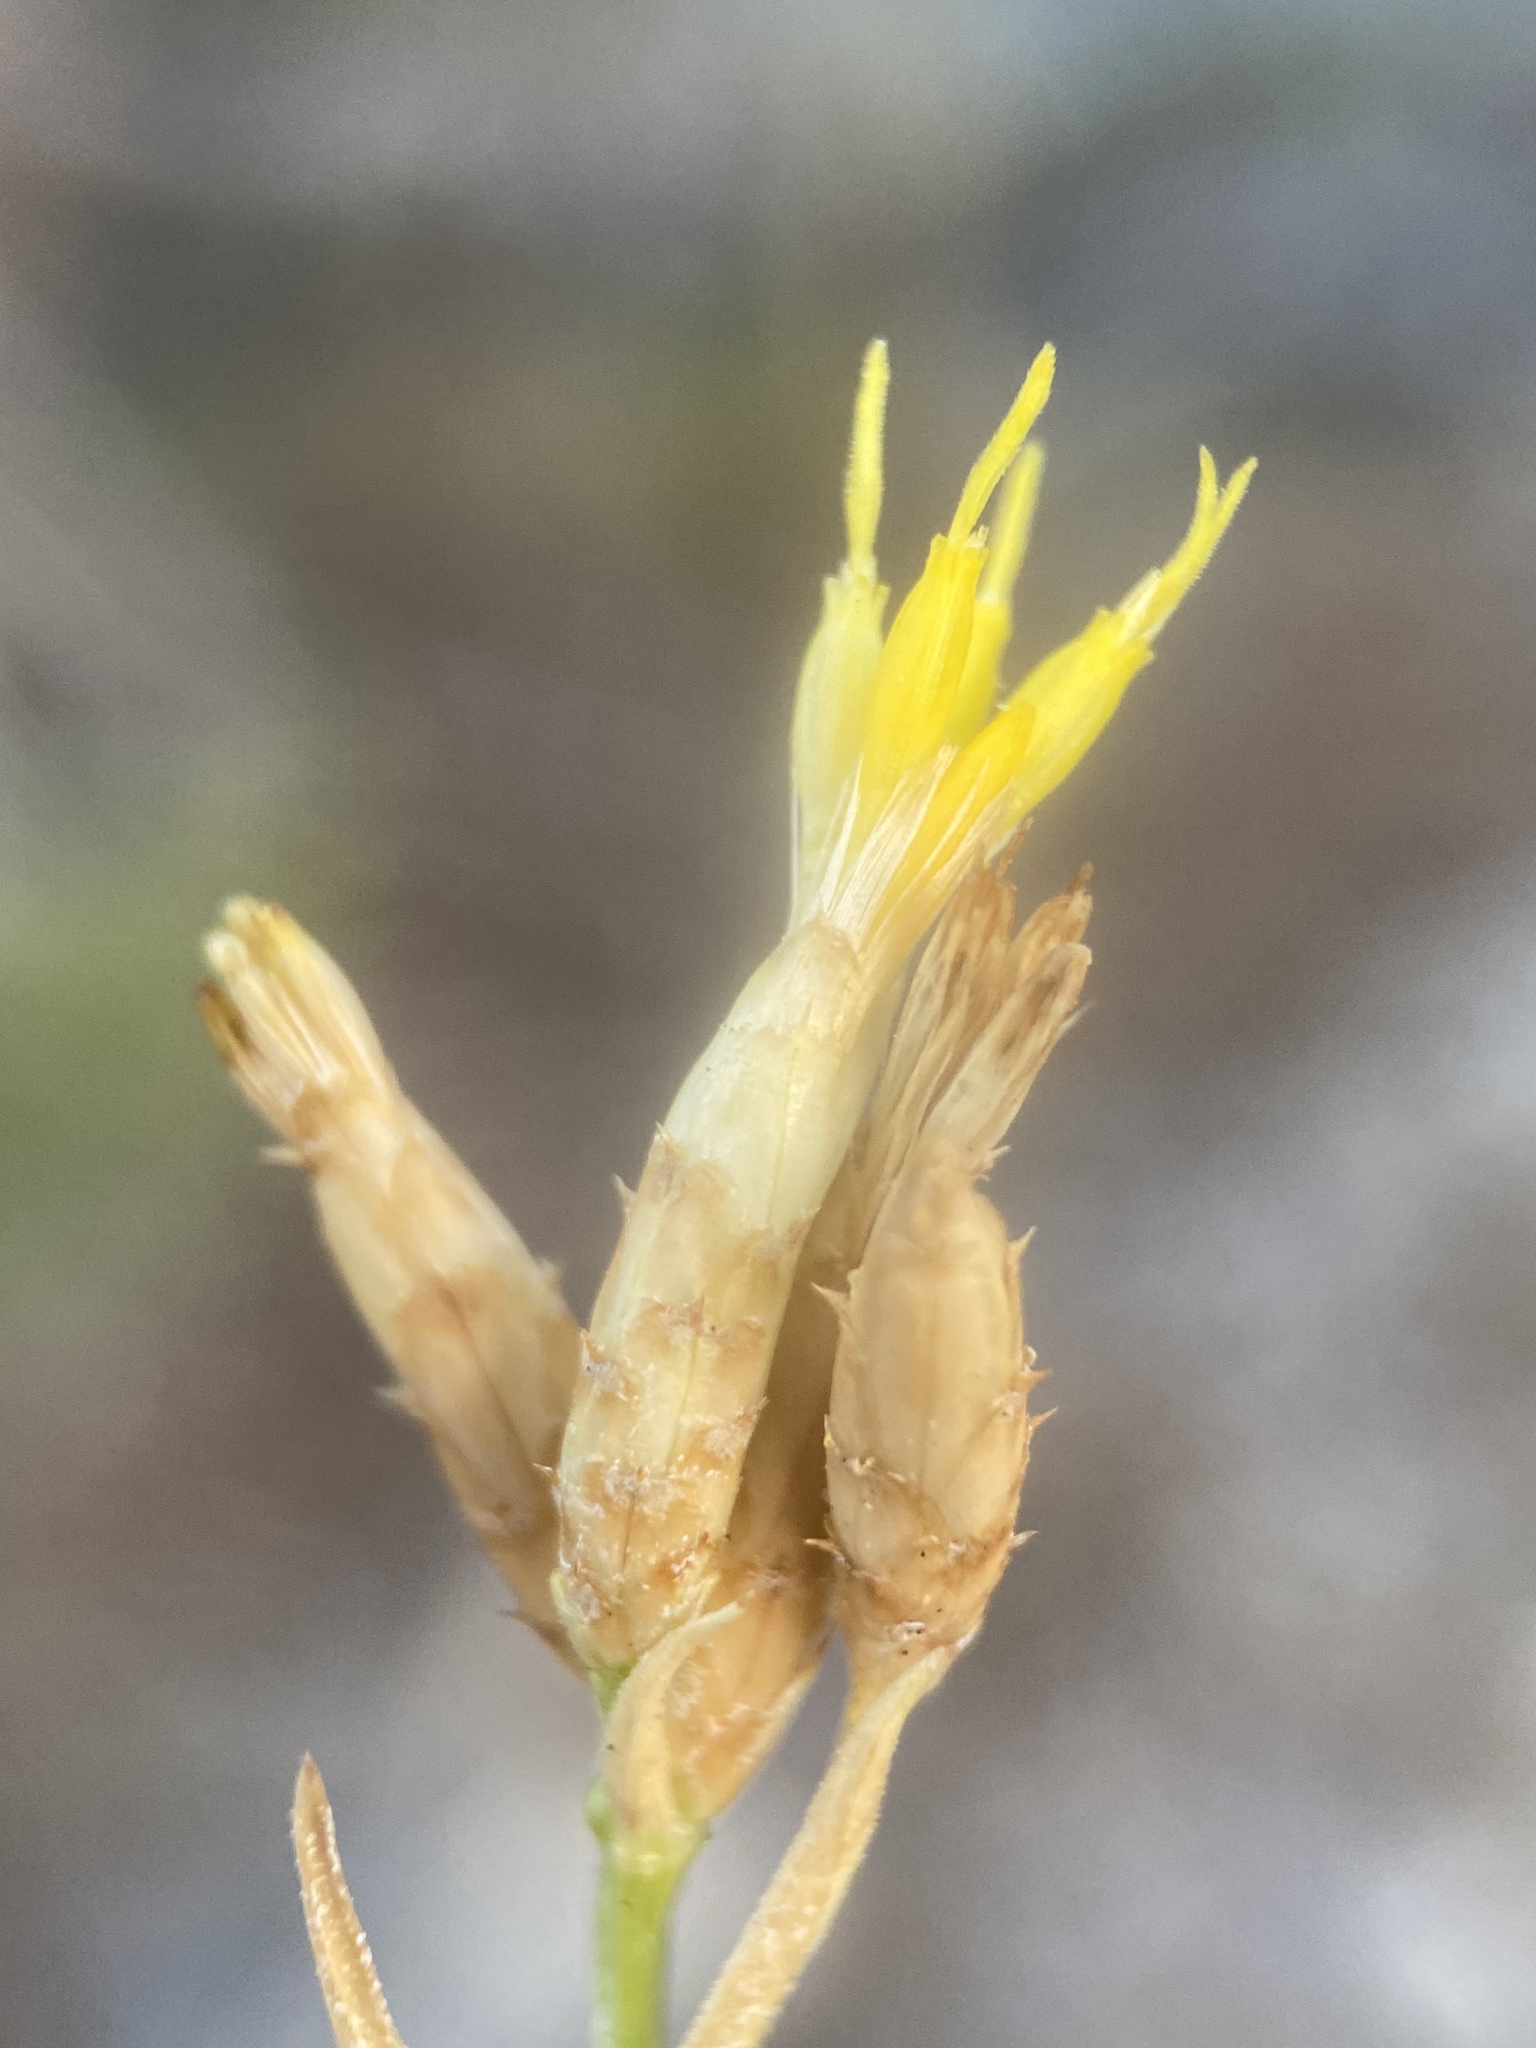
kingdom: Plantae
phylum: Tracheophyta
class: Magnoliopsida
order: Asterales
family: Asteraceae
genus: Cuniculotinus
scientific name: Cuniculotinus gramineus
